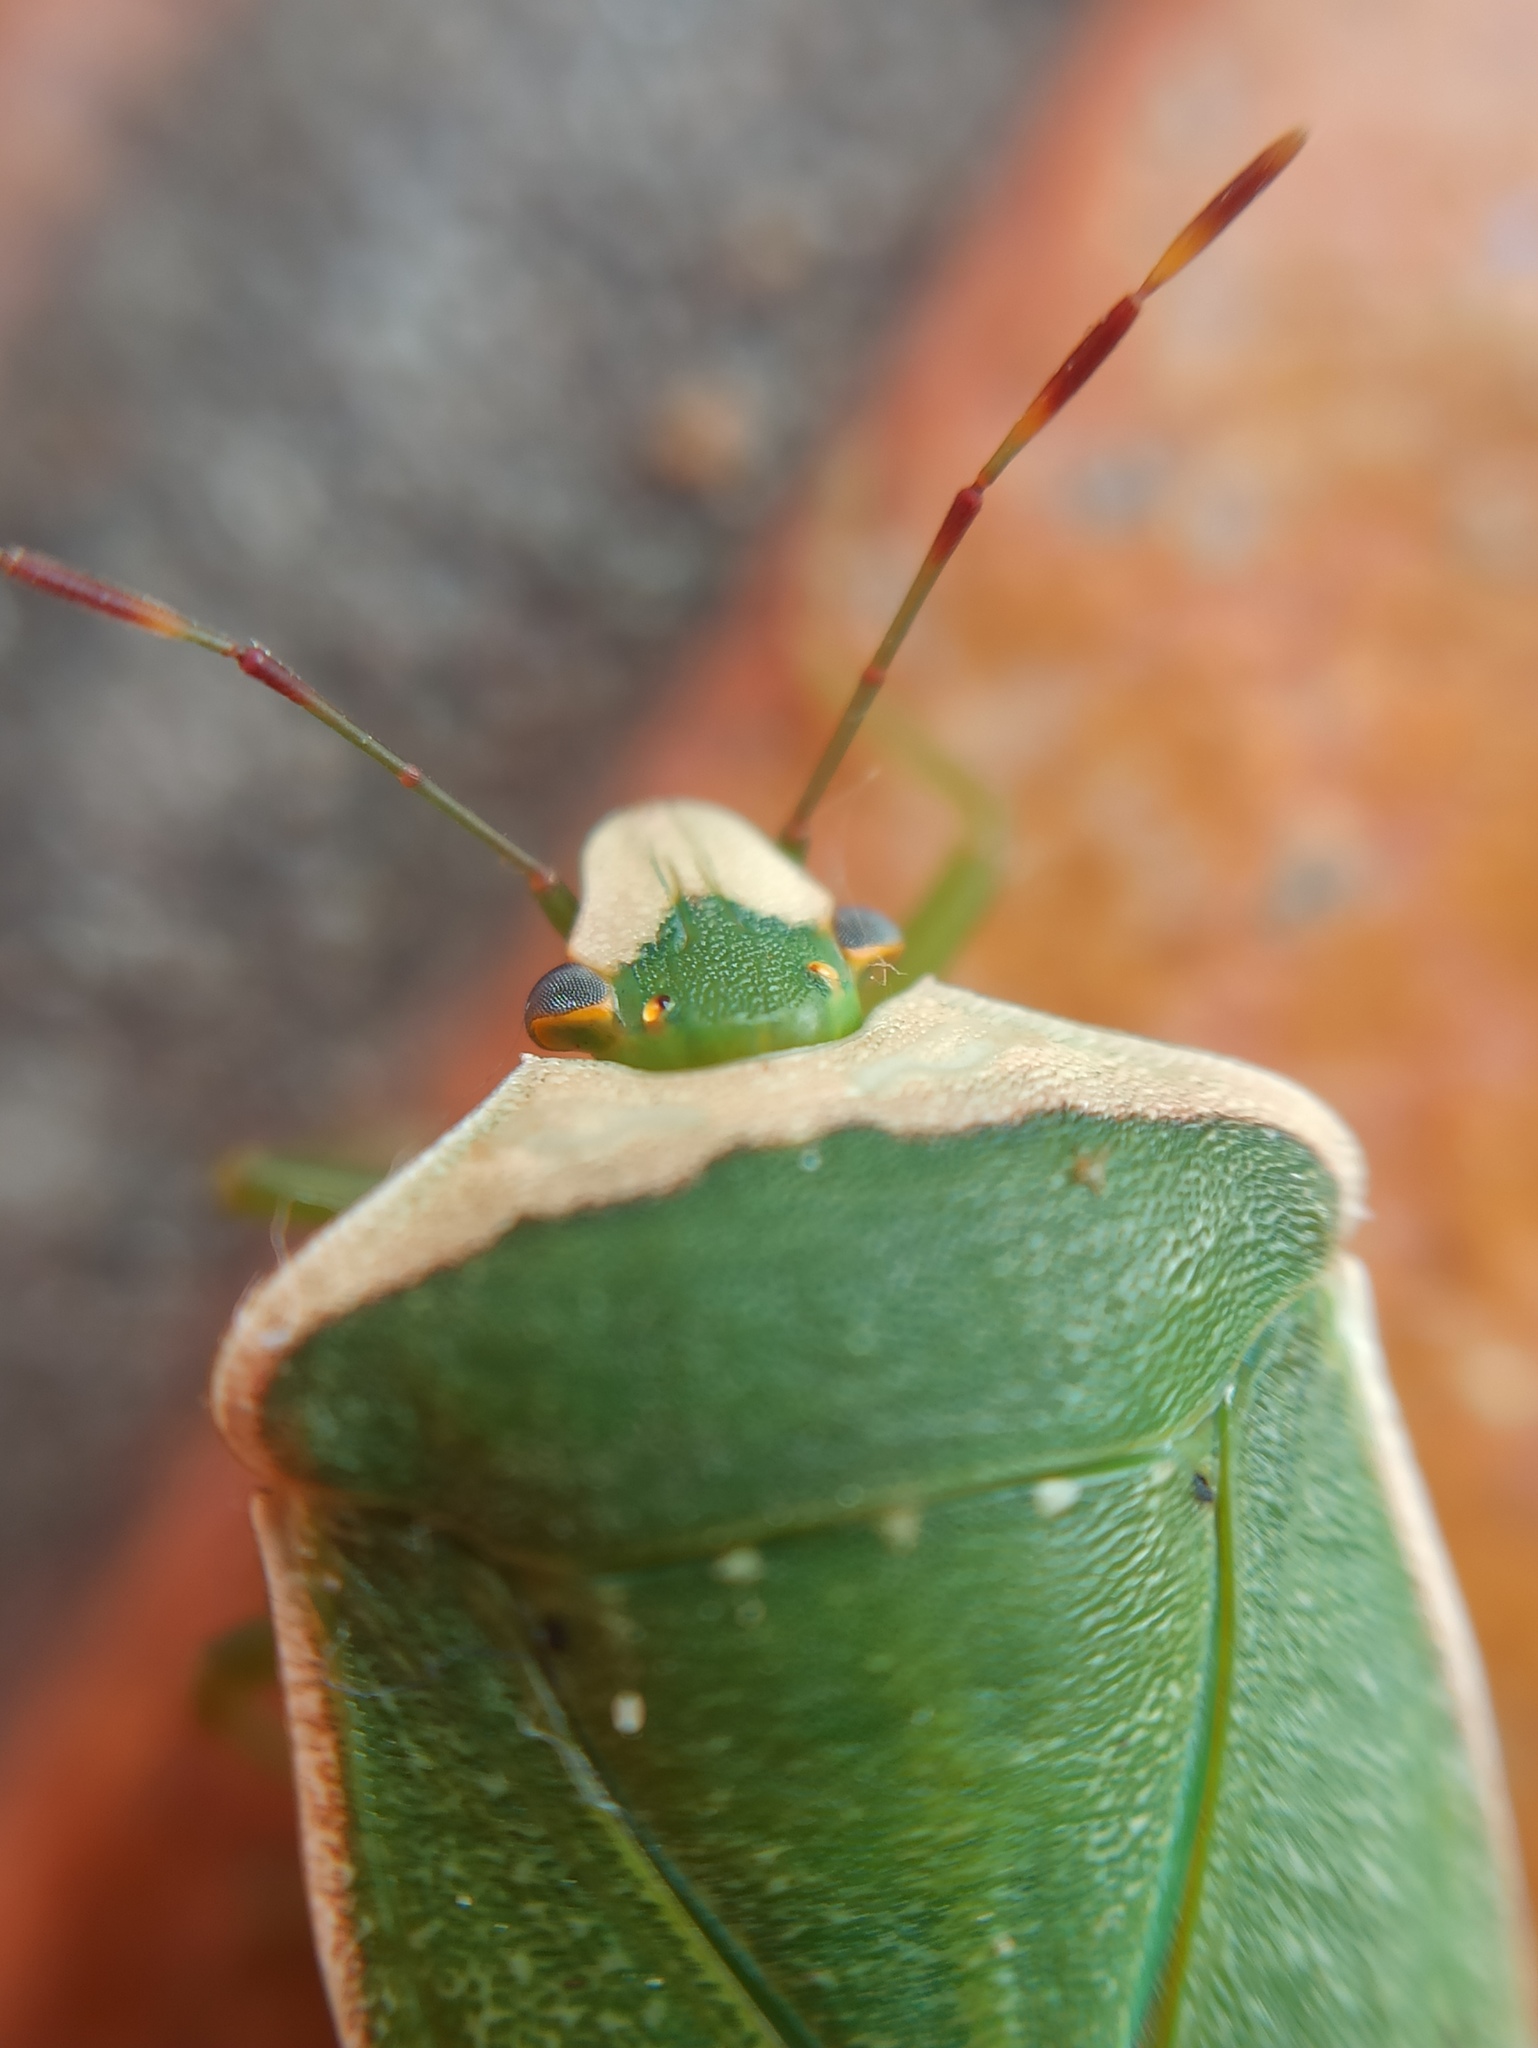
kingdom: Animalia
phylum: Arthropoda
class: Insecta
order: Hemiptera
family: Pentatomidae
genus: Nezara
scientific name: Nezara viridula
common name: Southern green stink bug
